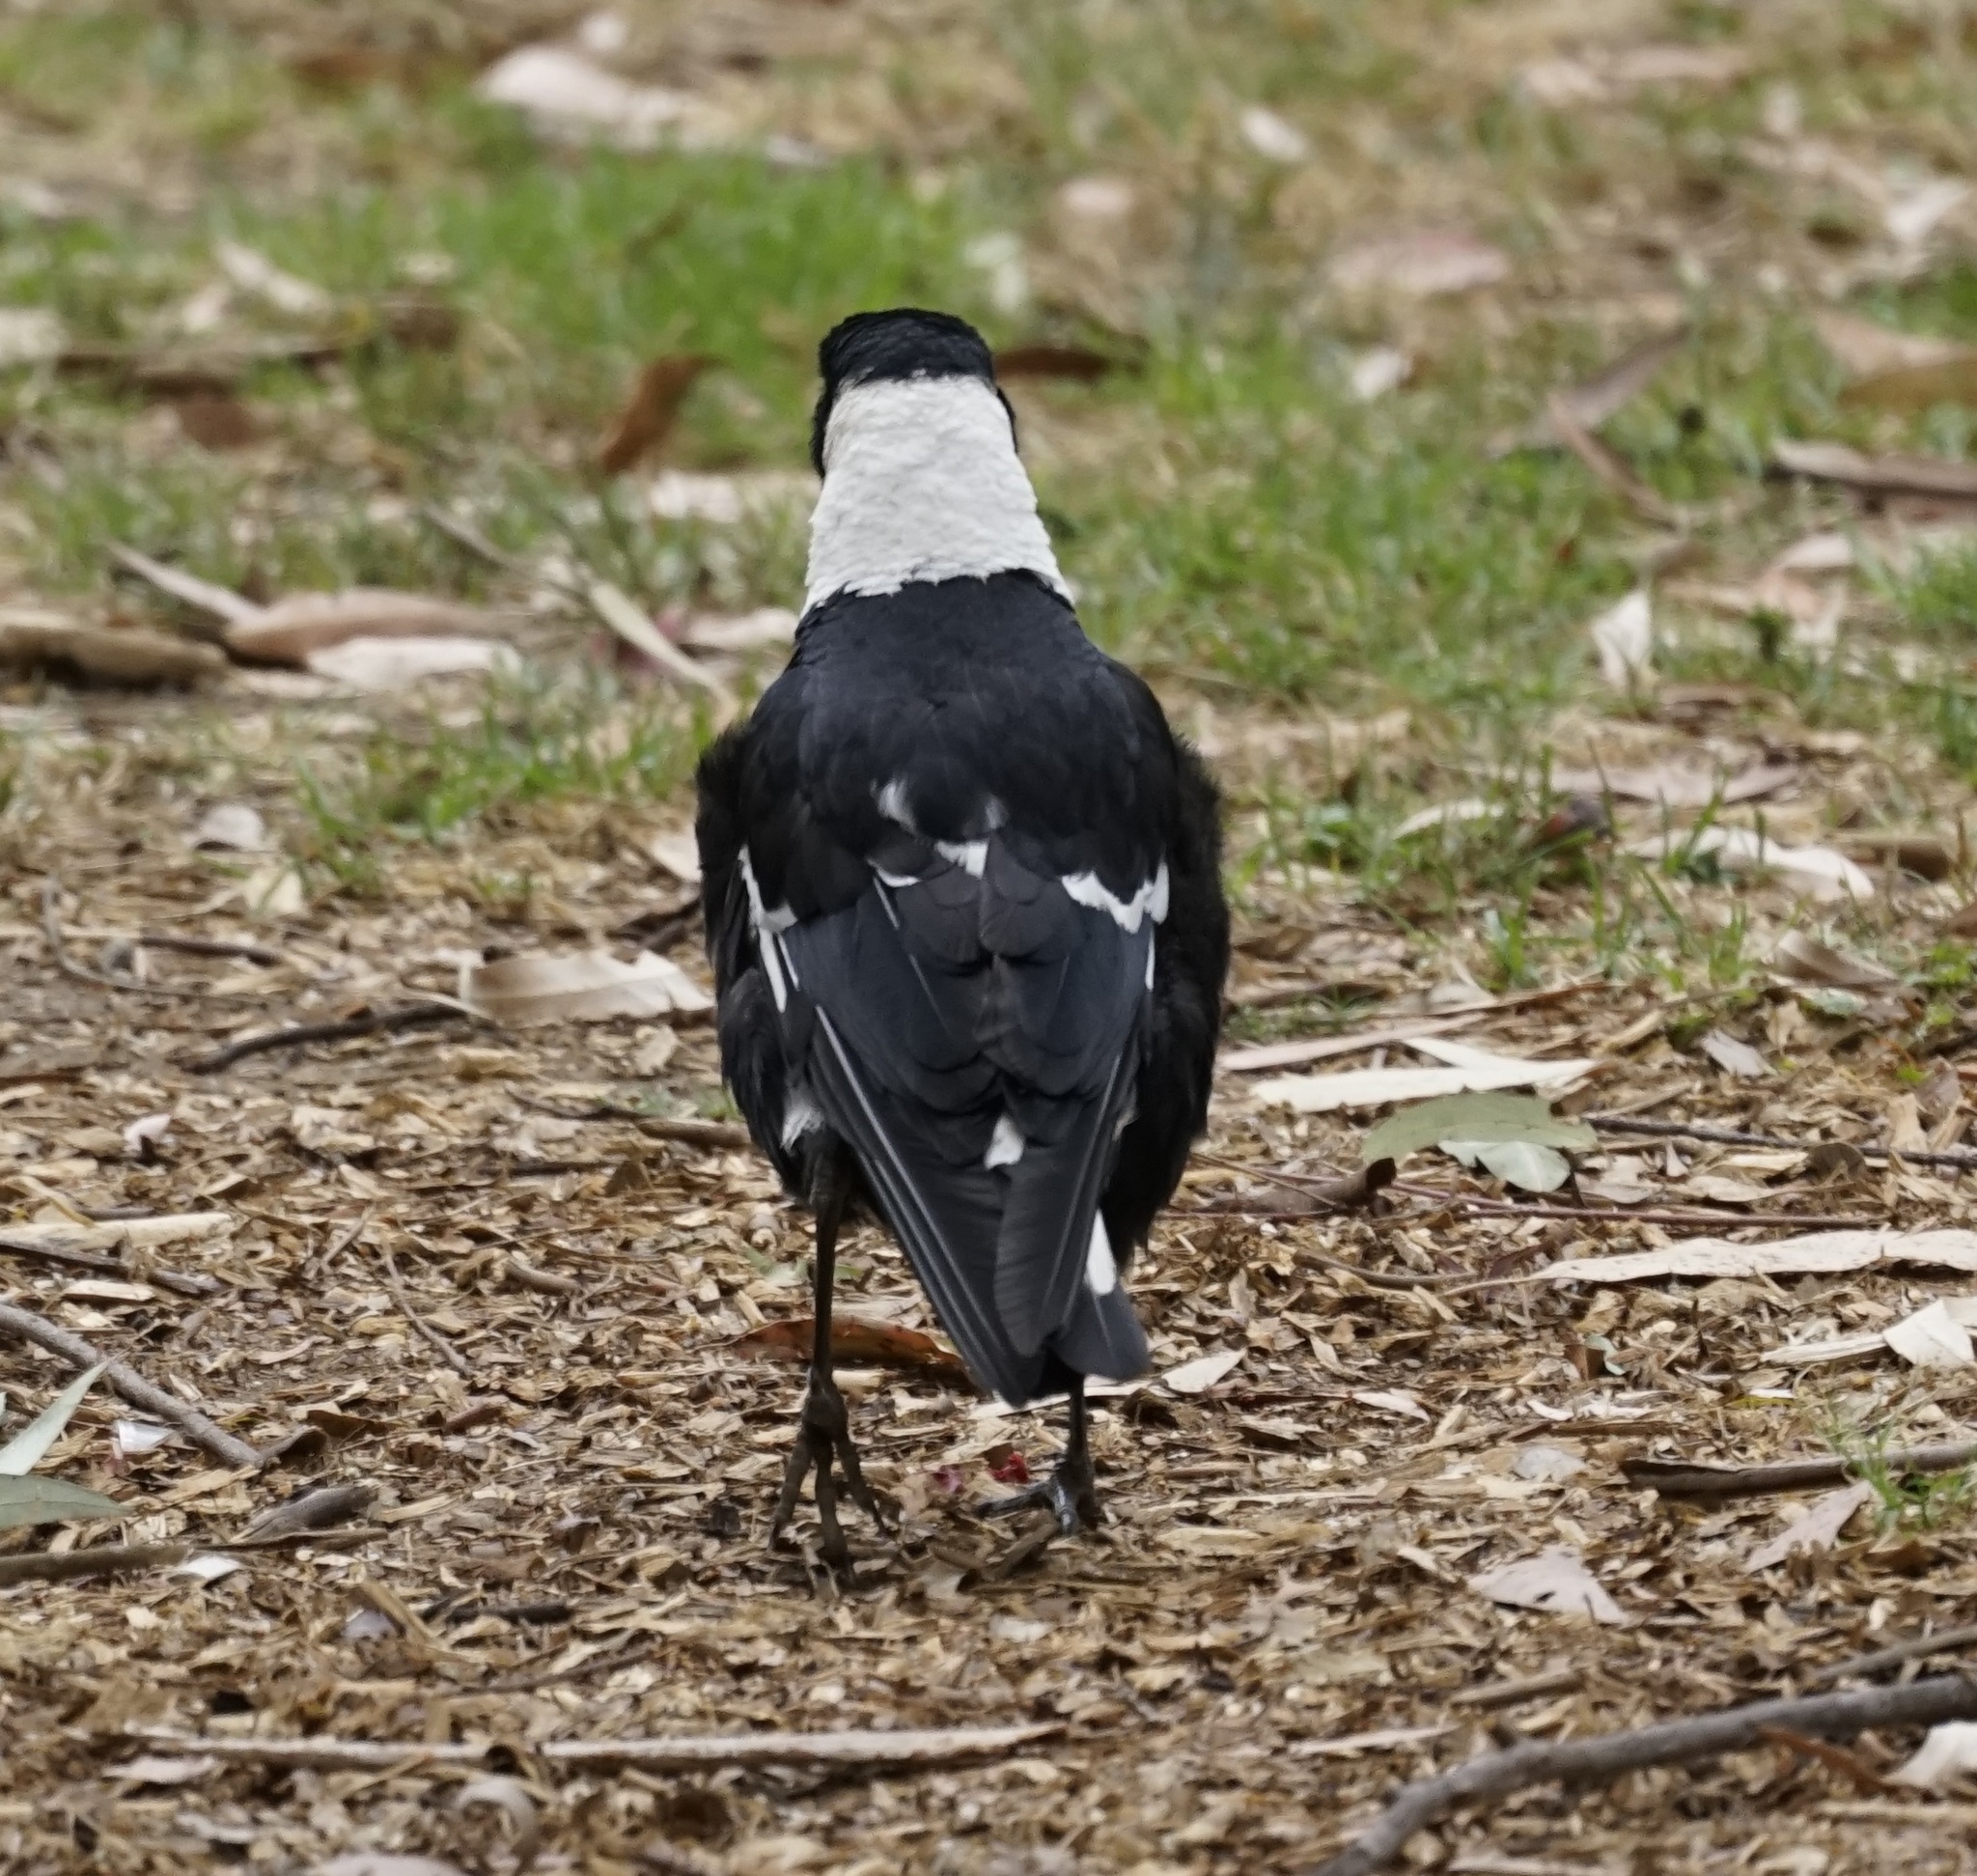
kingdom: Animalia
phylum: Chordata
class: Aves
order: Passeriformes
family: Cracticidae
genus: Gymnorhina
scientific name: Gymnorhina tibicen
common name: Australian magpie
